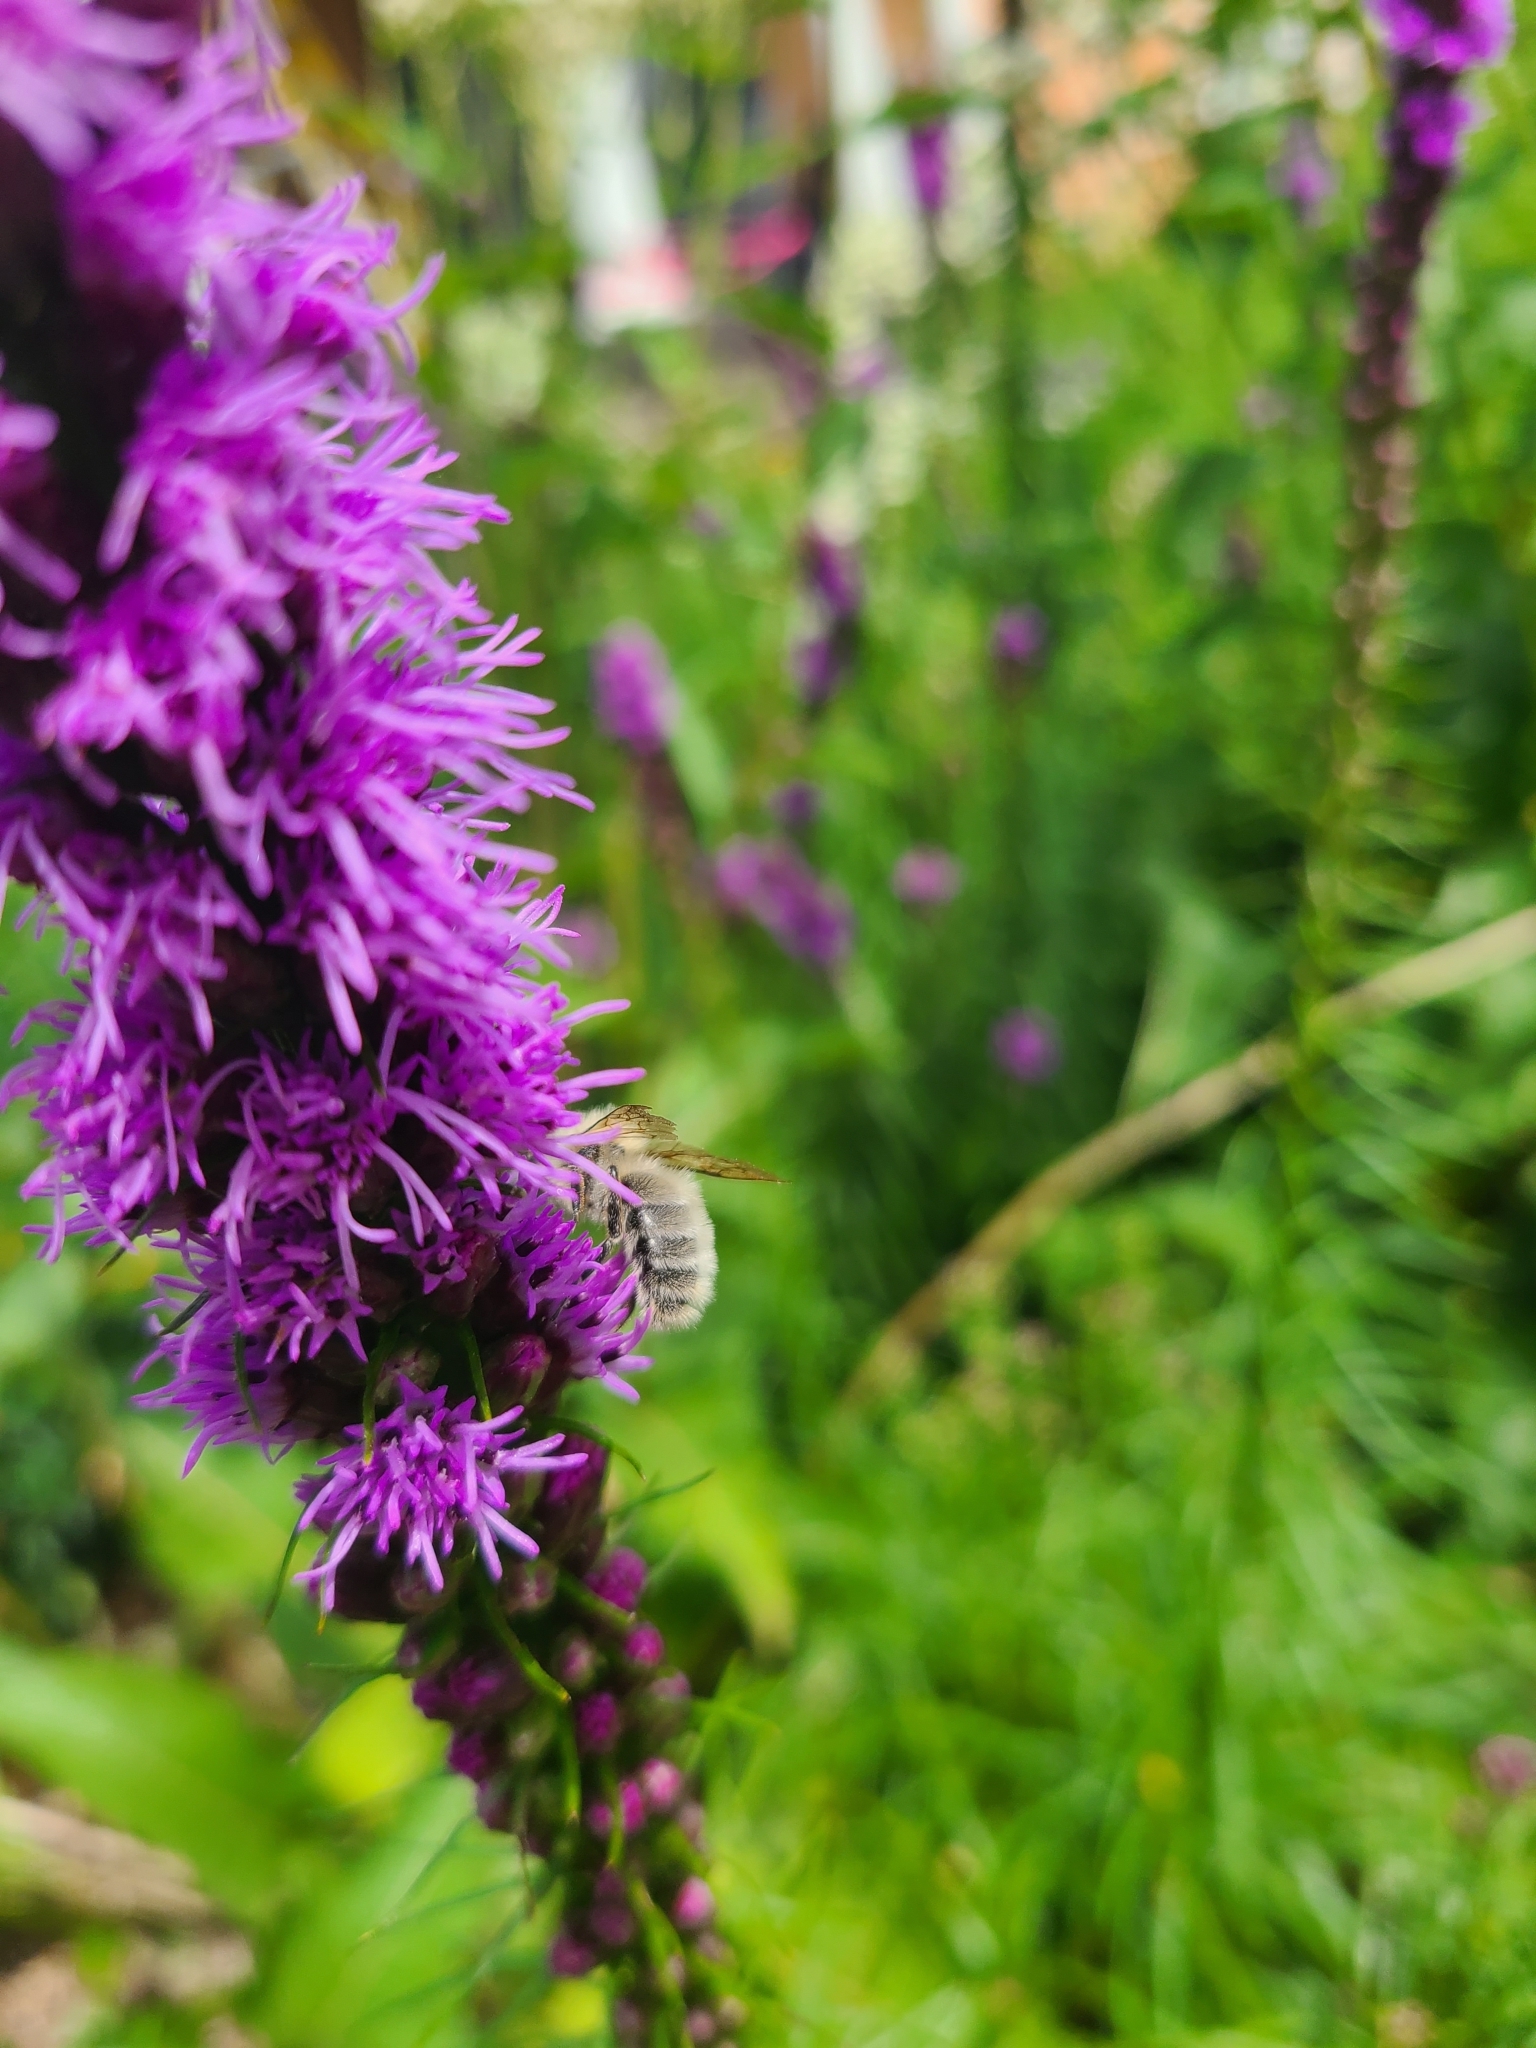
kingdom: Animalia
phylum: Arthropoda
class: Insecta
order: Hymenoptera
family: Apidae
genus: Bombus
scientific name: Bombus perplexus
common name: Confusing bumble bee
